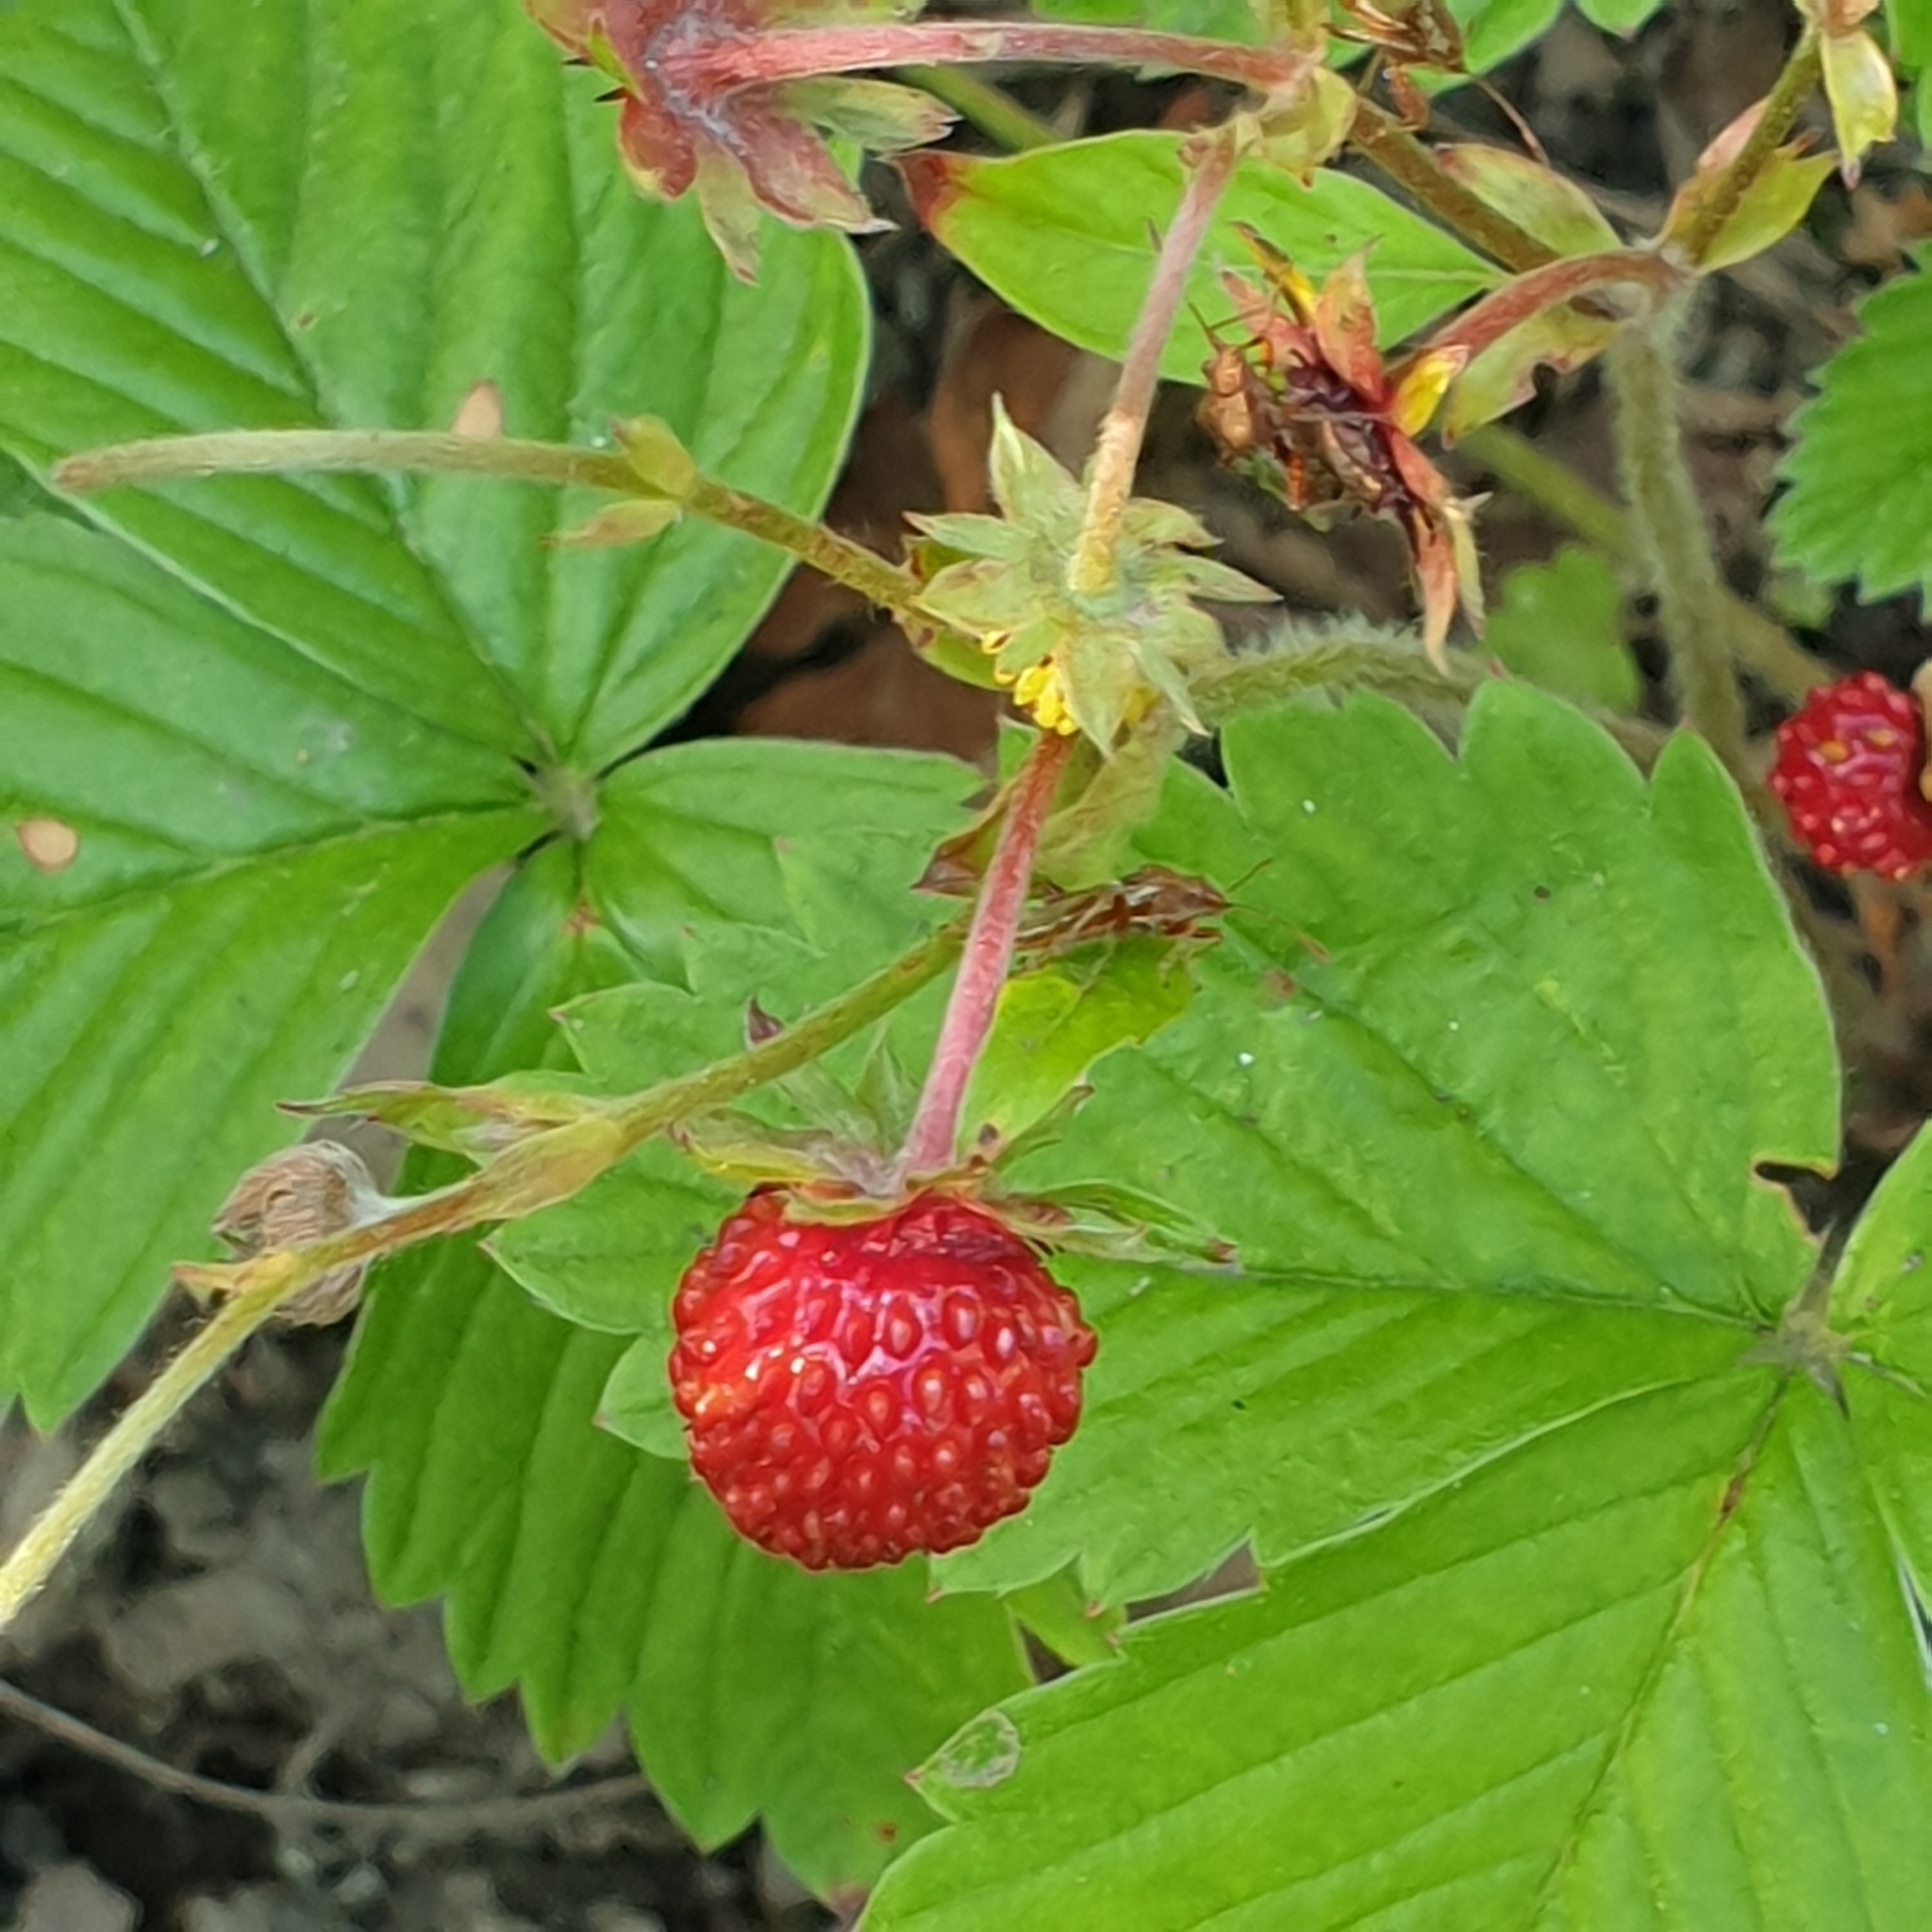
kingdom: Plantae
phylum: Tracheophyta
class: Magnoliopsida
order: Rosales
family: Rosaceae
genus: Fragaria
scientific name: Fragaria vesca
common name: Wild strawberry
